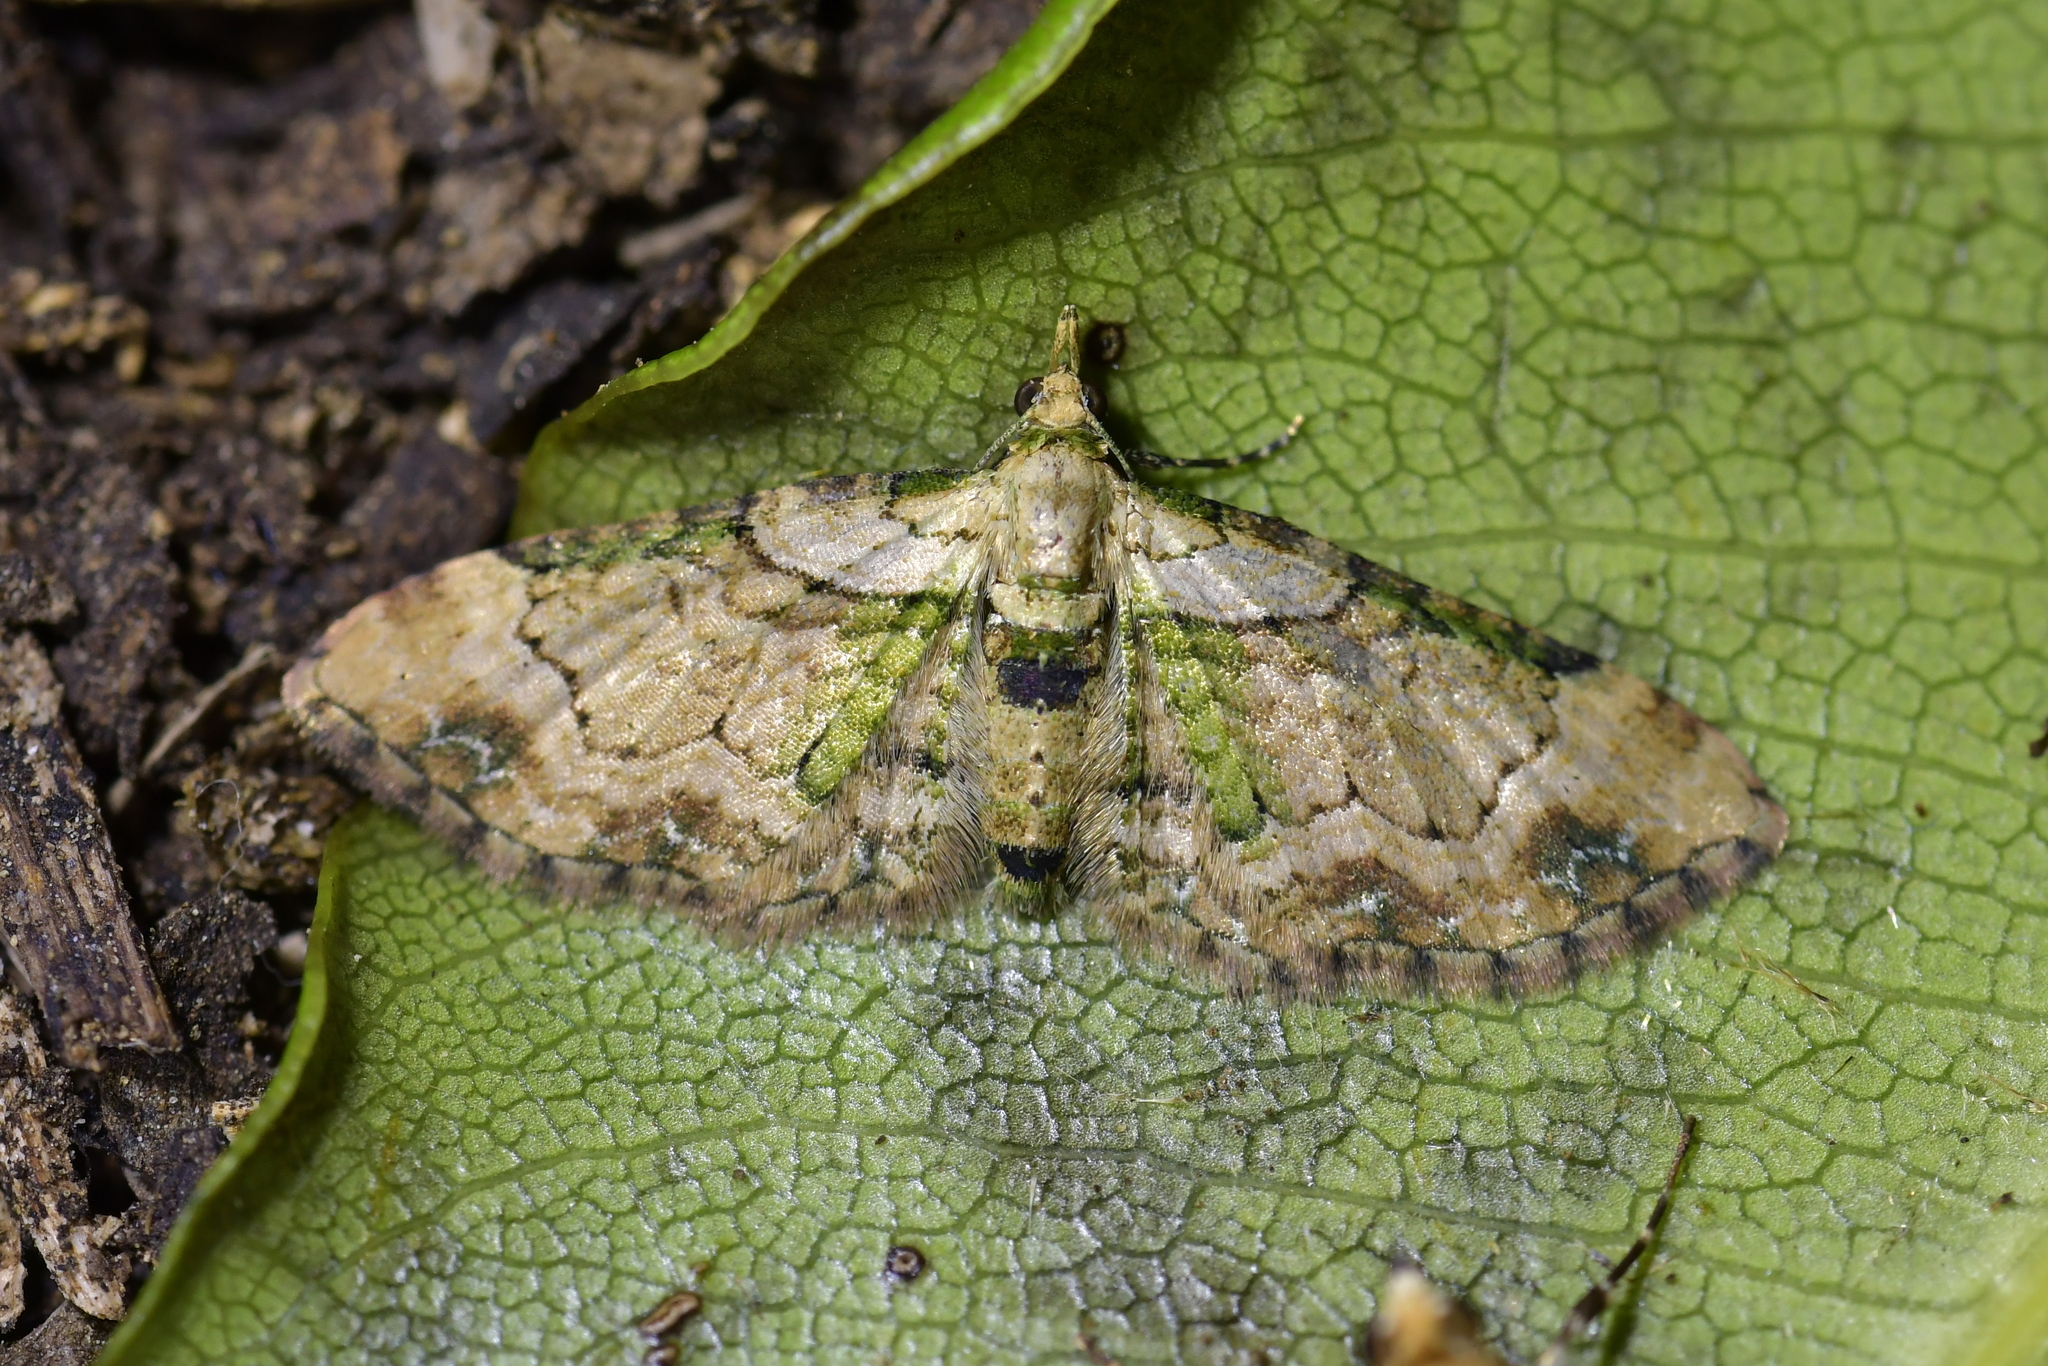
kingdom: Animalia
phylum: Arthropoda
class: Insecta
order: Lepidoptera
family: Geometridae
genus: Chloroclystis
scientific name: Chloroclystis
